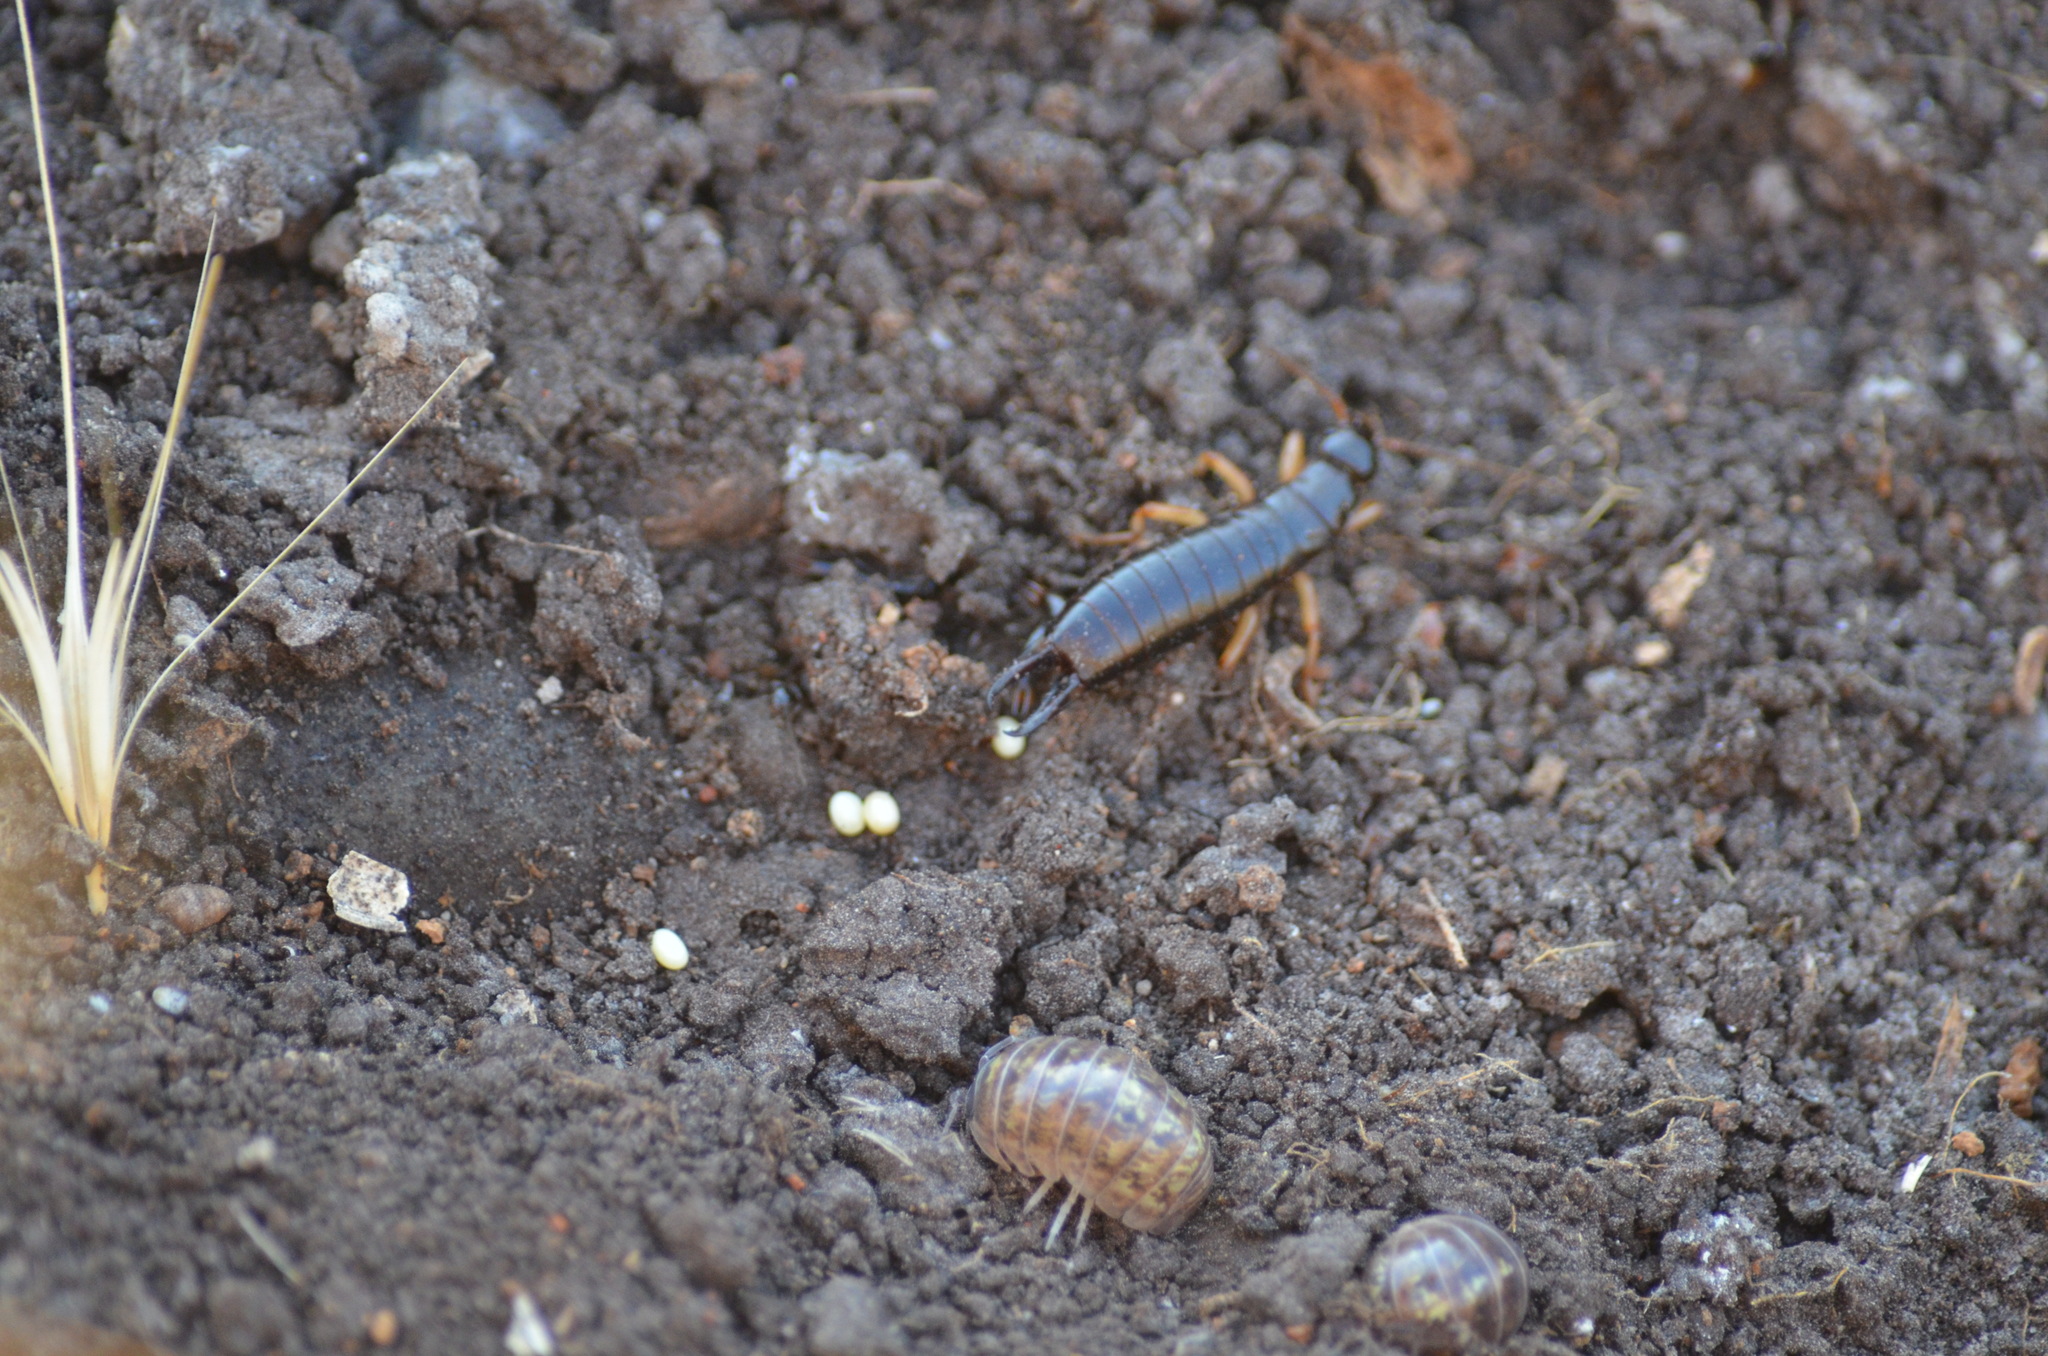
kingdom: Animalia
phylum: Arthropoda
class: Malacostraca
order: Isopoda
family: Armadillidiidae
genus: Armadillidium
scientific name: Armadillidium vulgare
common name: Common pill woodlouse
